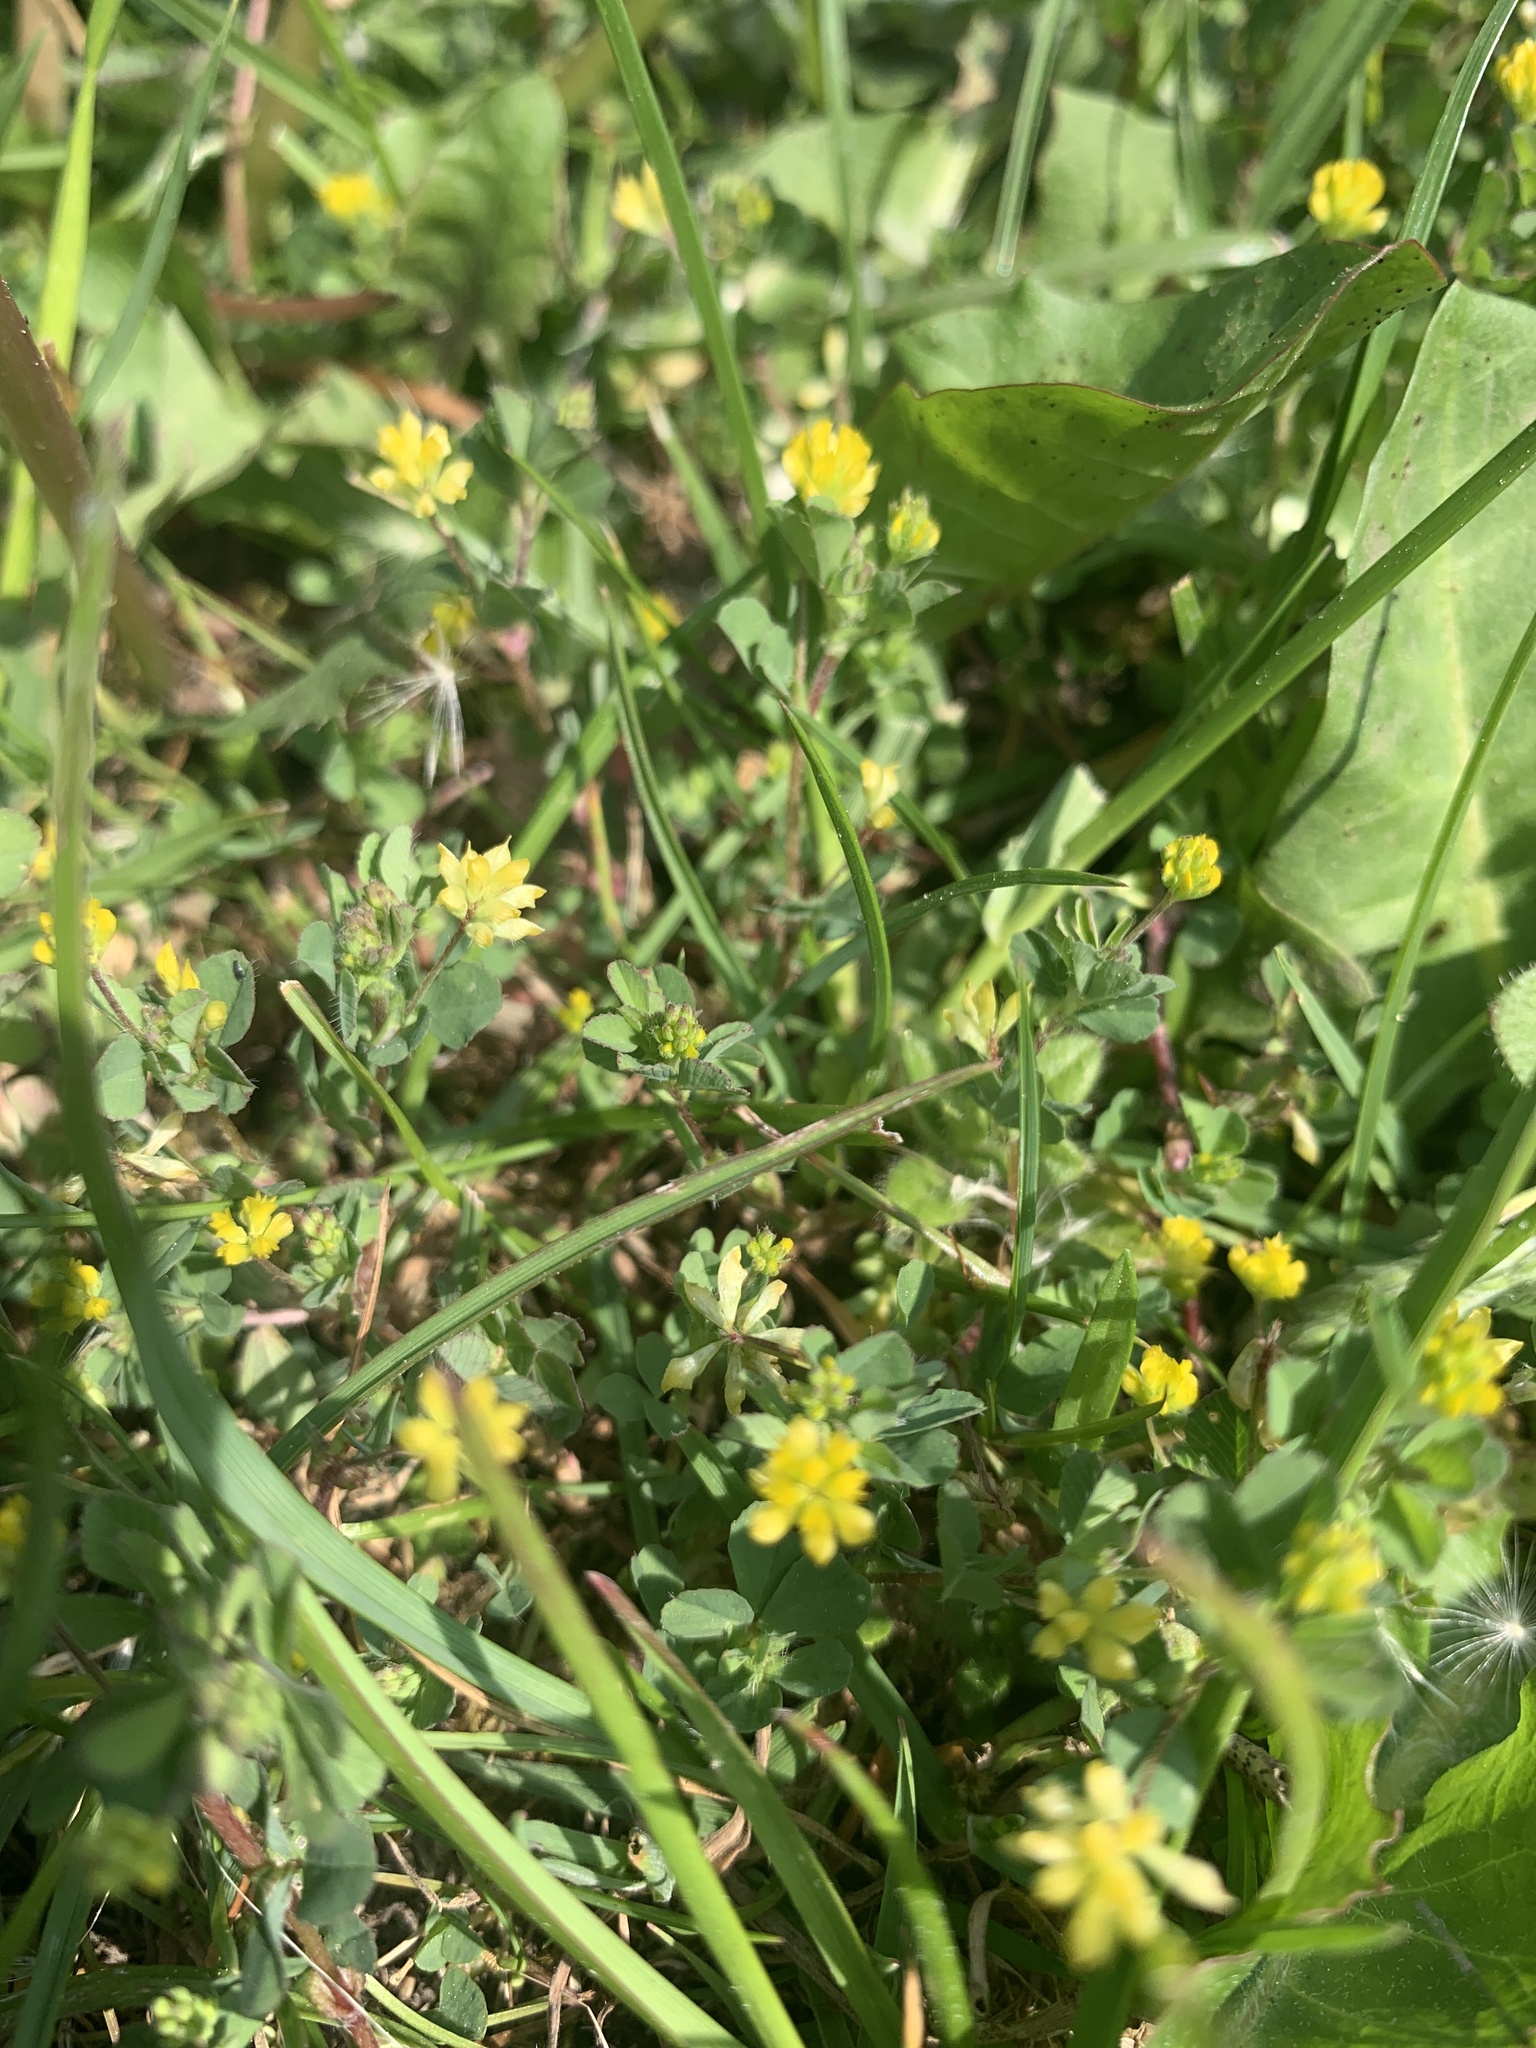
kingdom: Plantae
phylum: Tracheophyta
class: Magnoliopsida
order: Fabales
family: Fabaceae
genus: Trifolium
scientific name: Trifolium dubium
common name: Suckling clover
